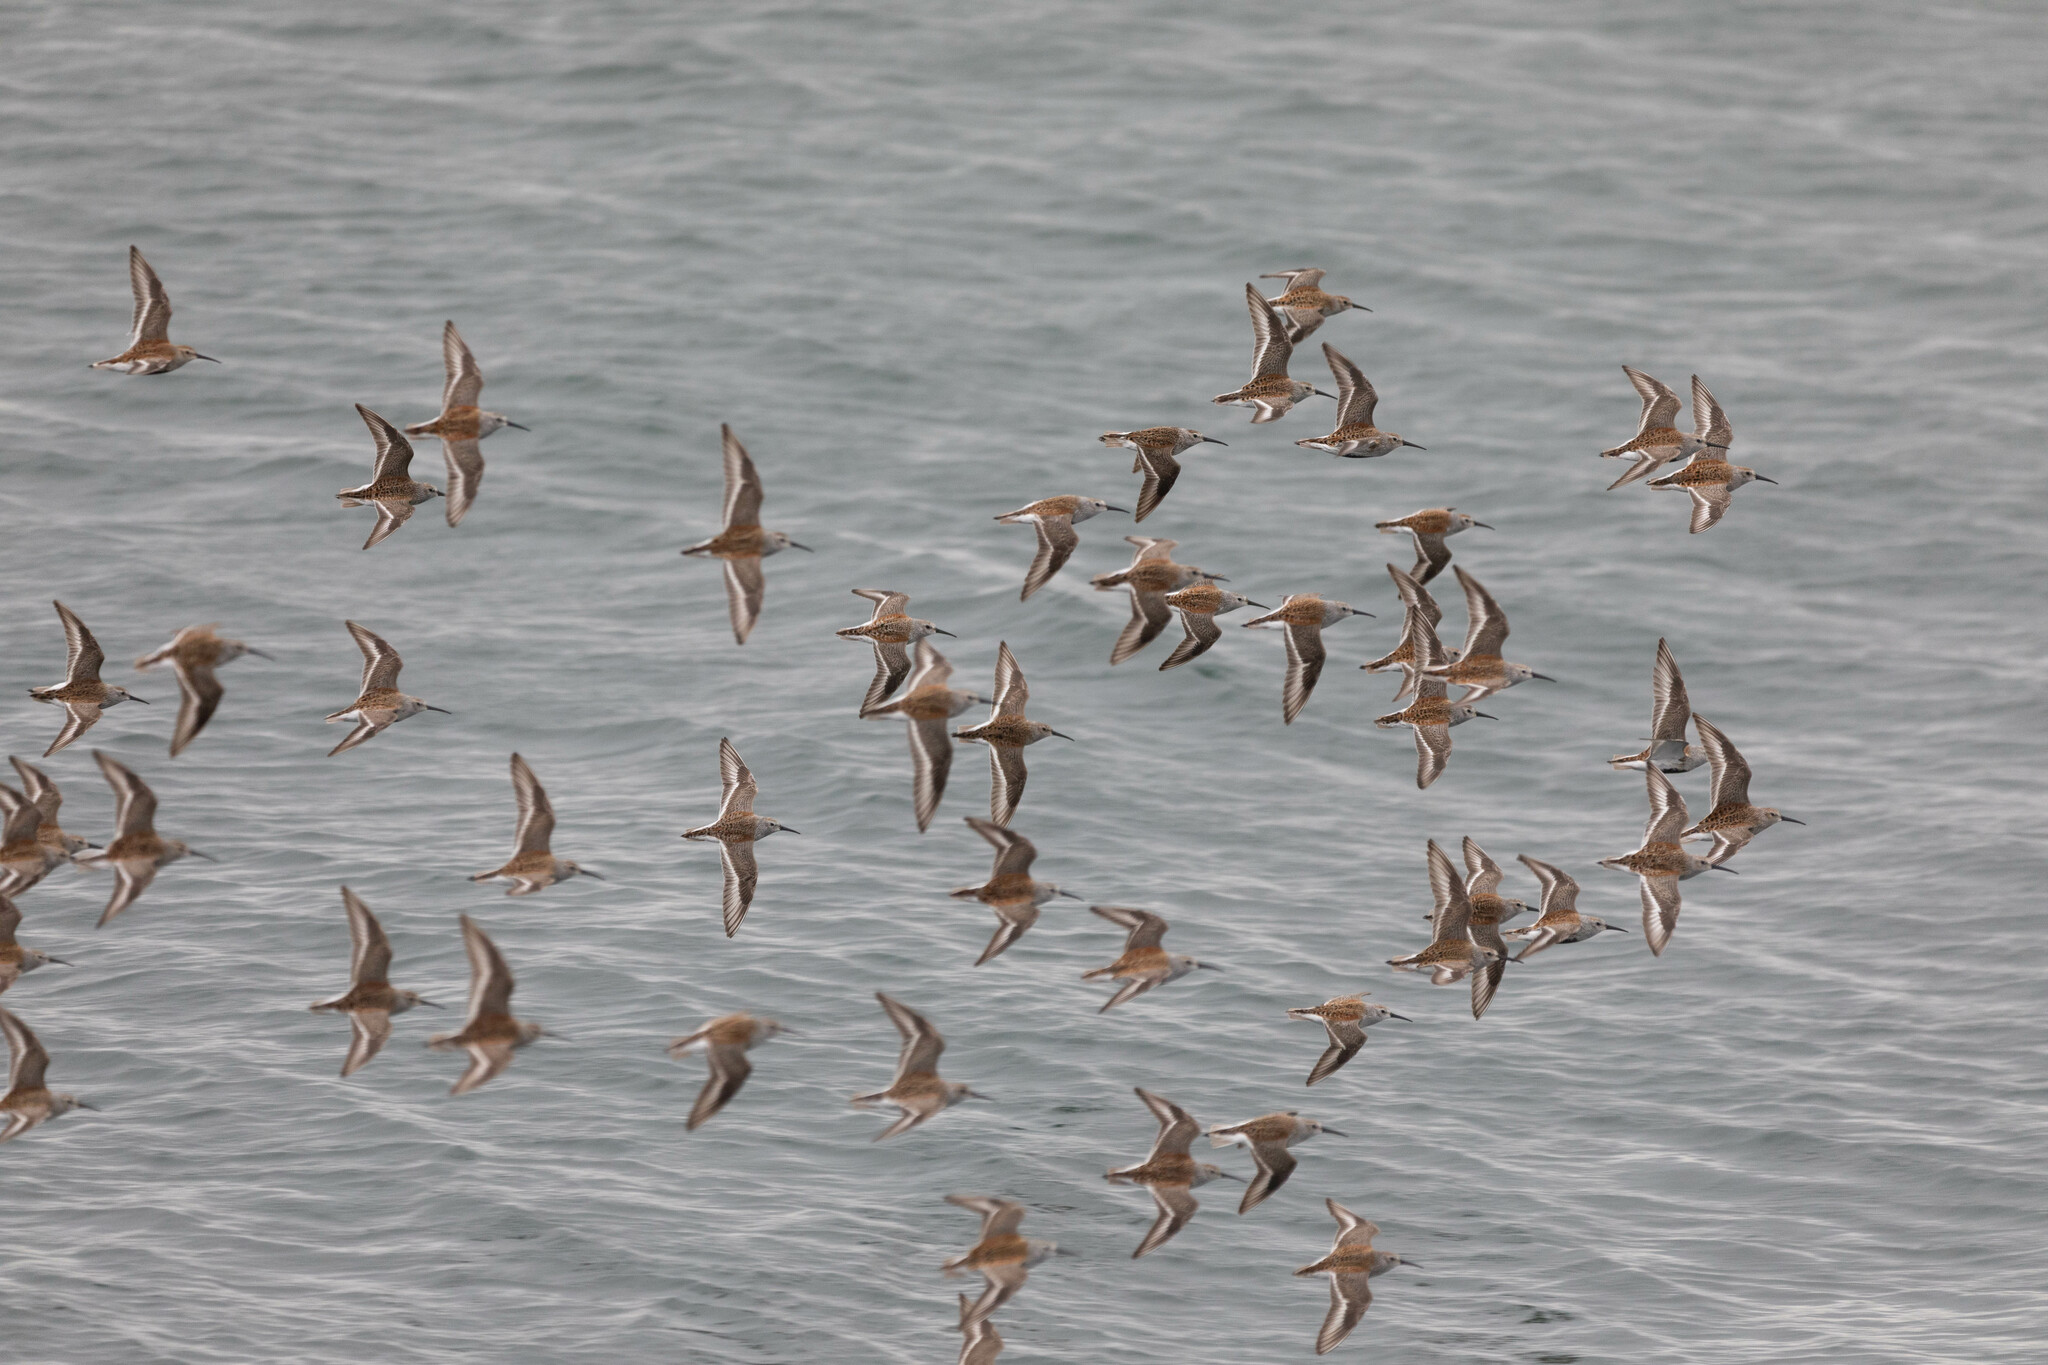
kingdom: Animalia
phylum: Chordata
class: Aves
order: Charadriiformes
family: Scolopacidae
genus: Calidris
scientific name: Calidris alpina
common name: Dunlin
